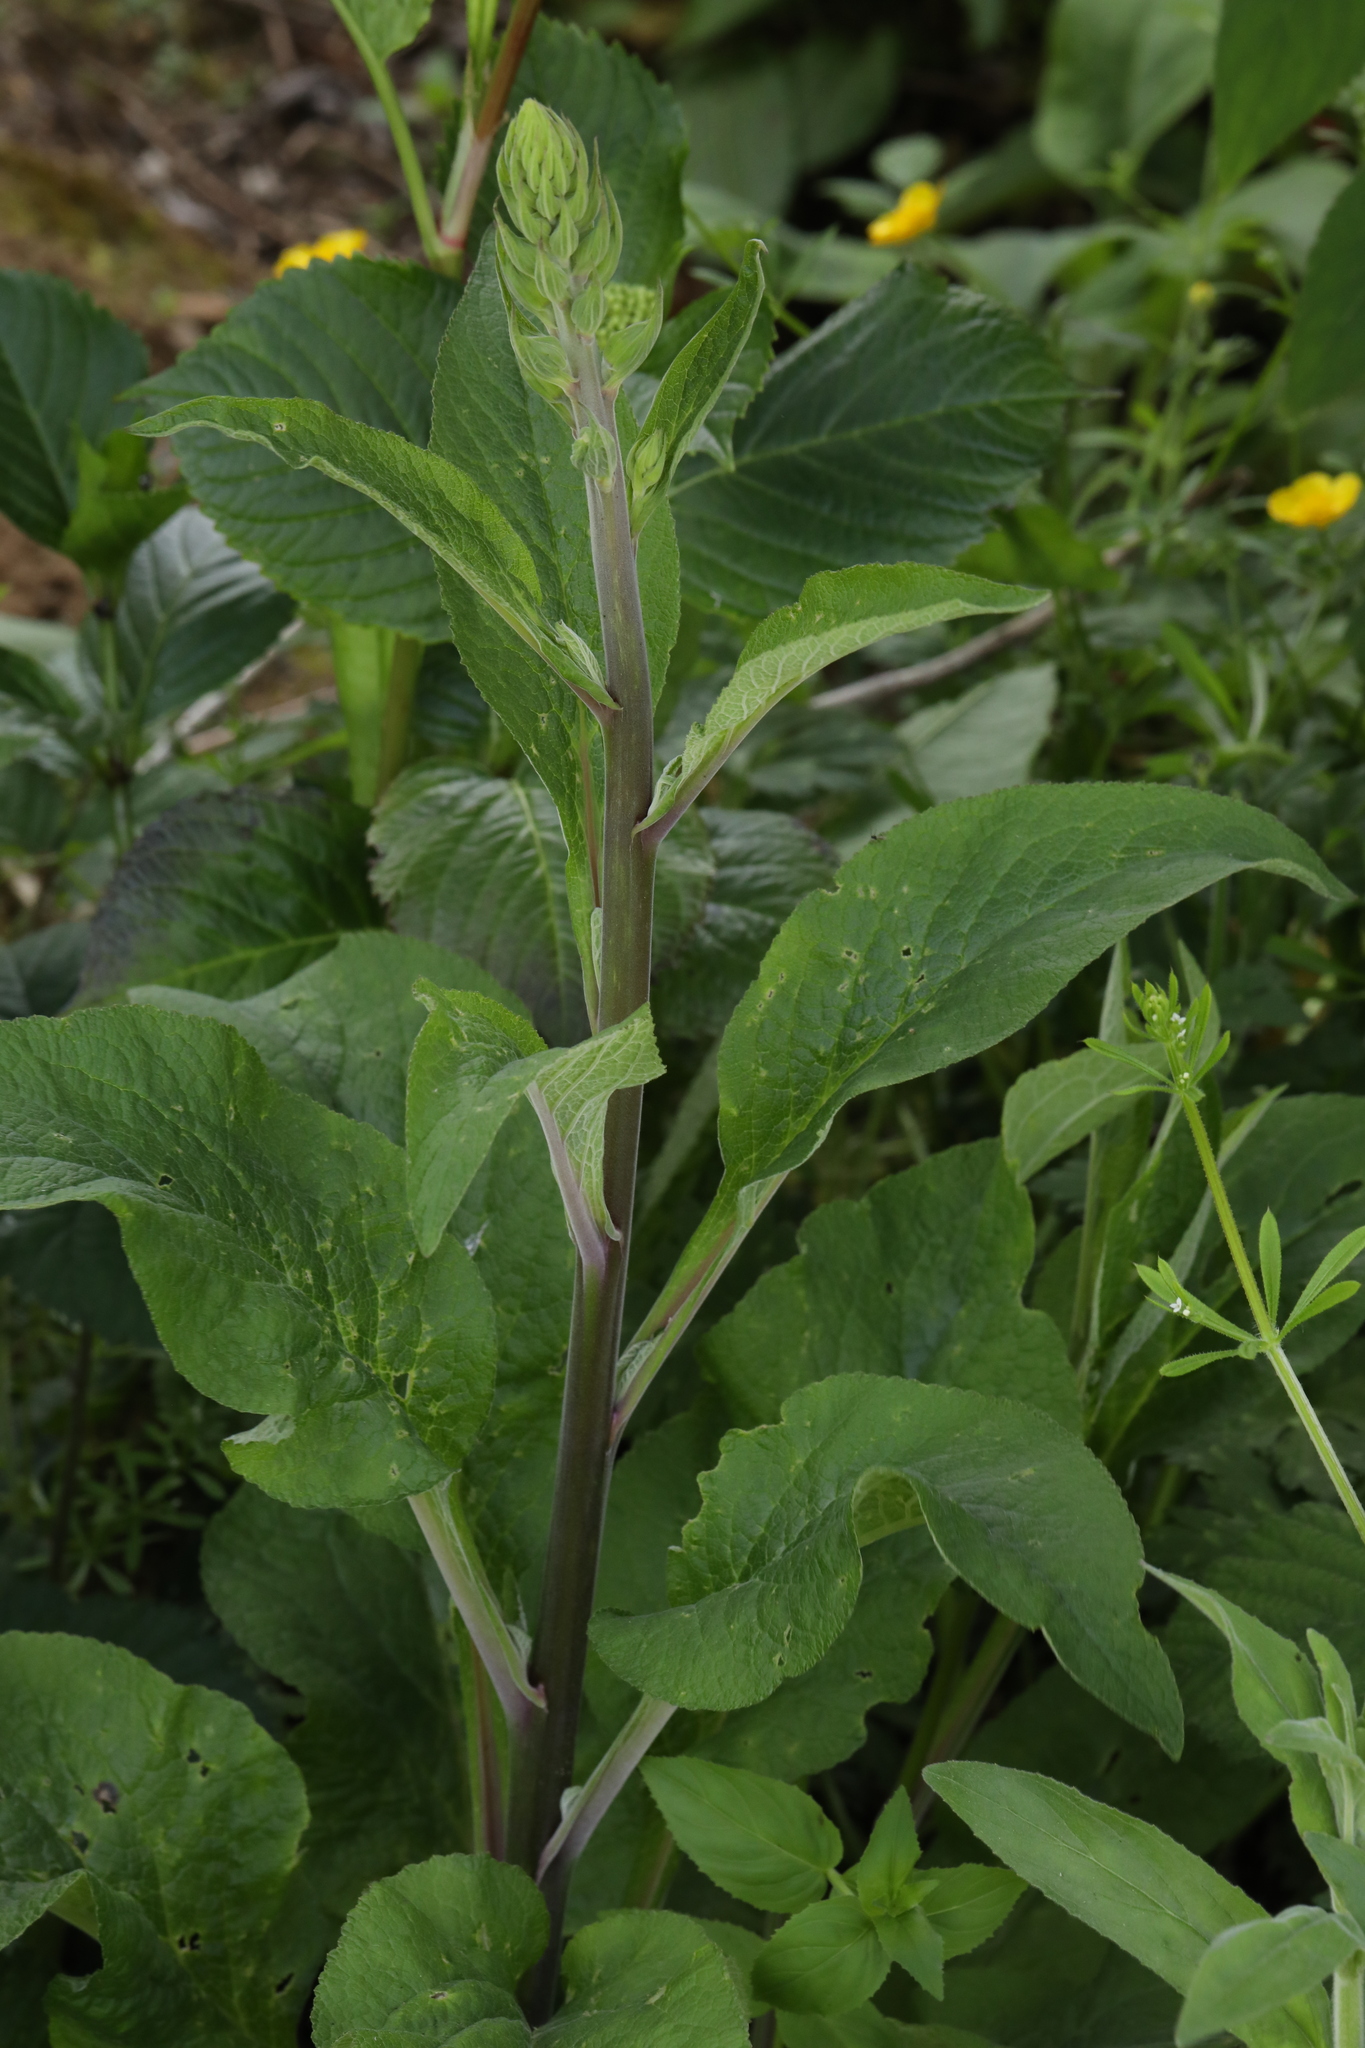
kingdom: Plantae
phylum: Tracheophyta
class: Magnoliopsida
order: Lamiales
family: Plantaginaceae
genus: Digitalis
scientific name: Digitalis purpurea
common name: Foxglove
